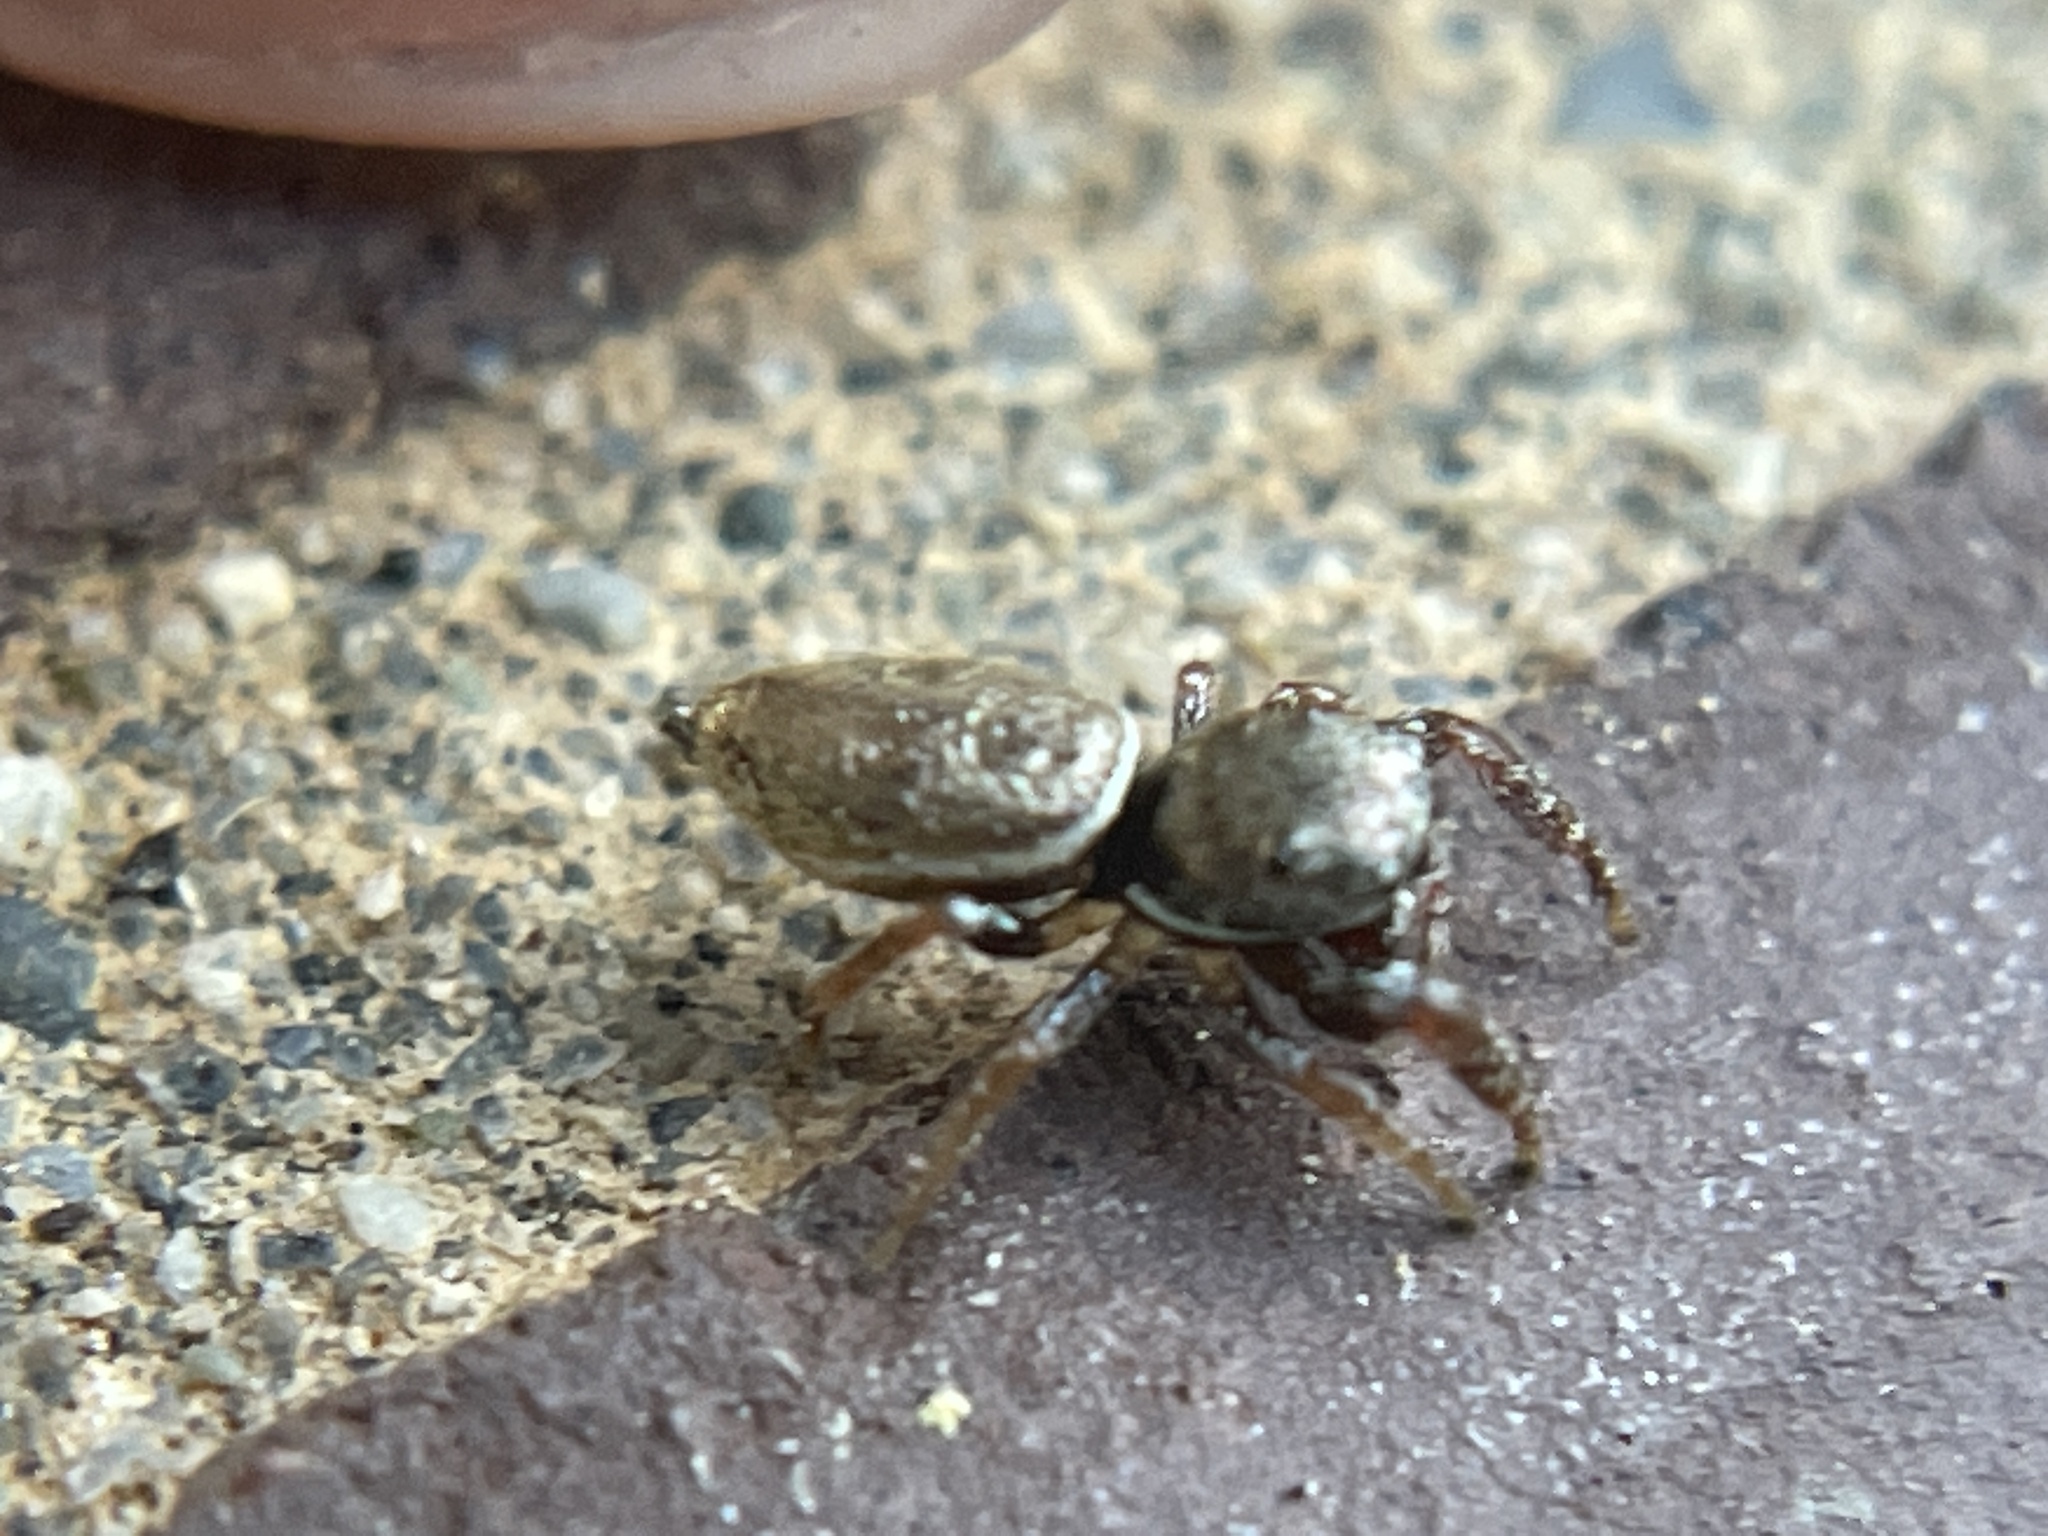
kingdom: Animalia
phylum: Arthropoda
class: Arachnida
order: Araneae
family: Salticidae
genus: Sassacus
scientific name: Sassacus vitis
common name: Jumping spiders
